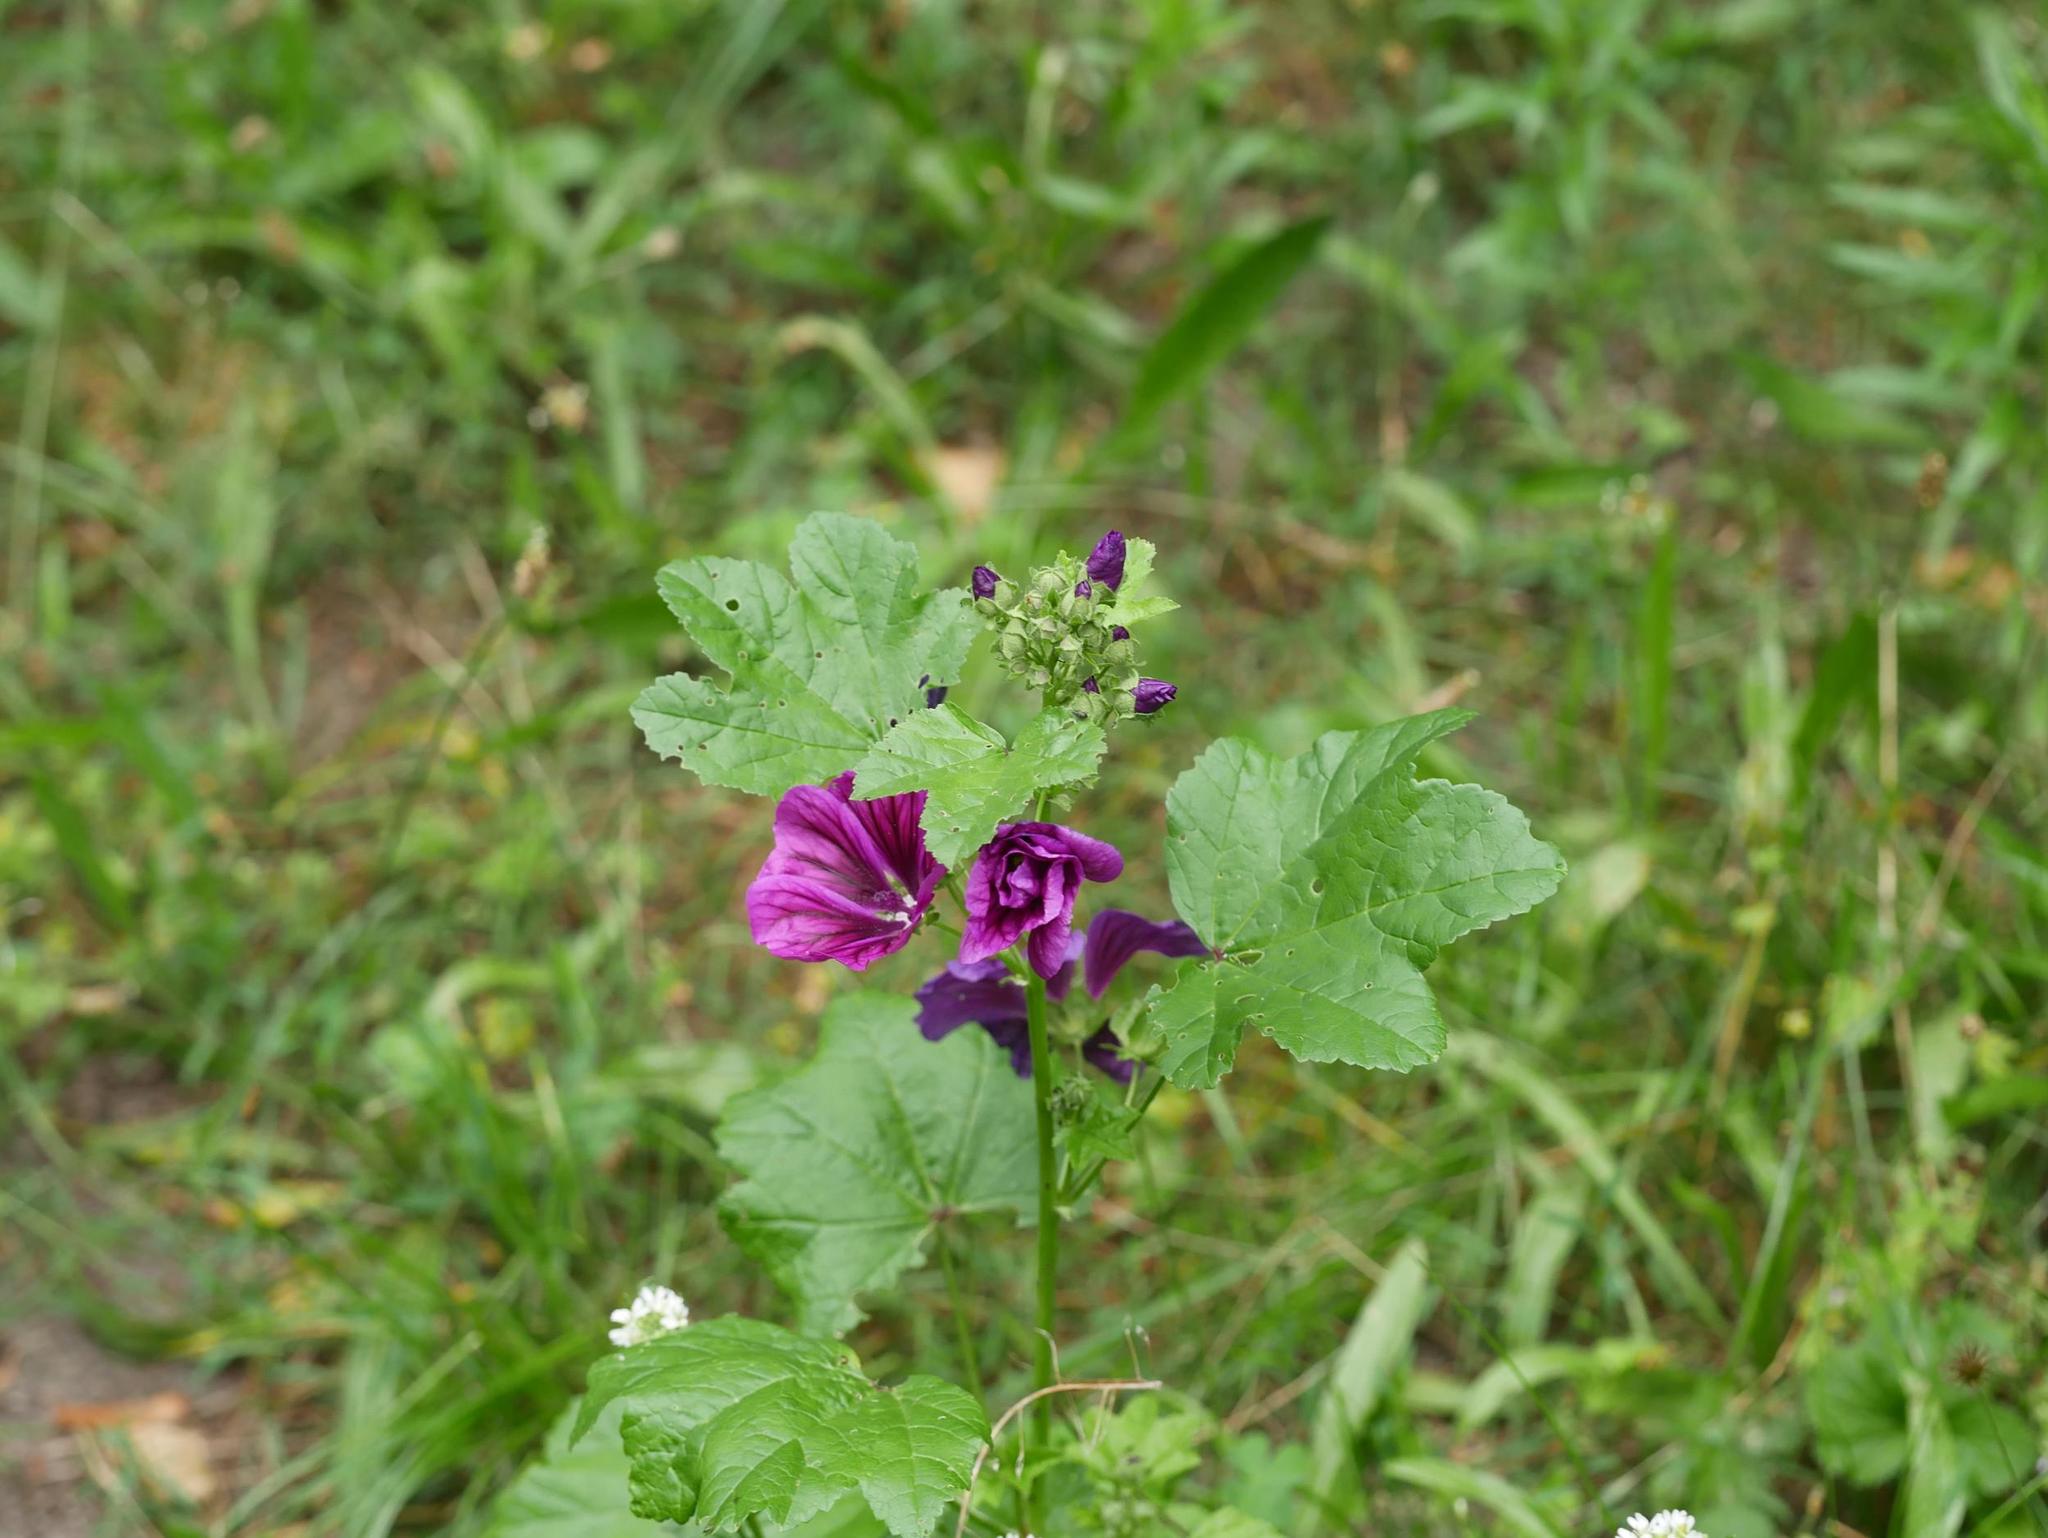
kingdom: Plantae
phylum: Tracheophyta
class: Magnoliopsida
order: Malvales
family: Malvaceae
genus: Malva
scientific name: Malva sylvestris
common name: Common mallow
